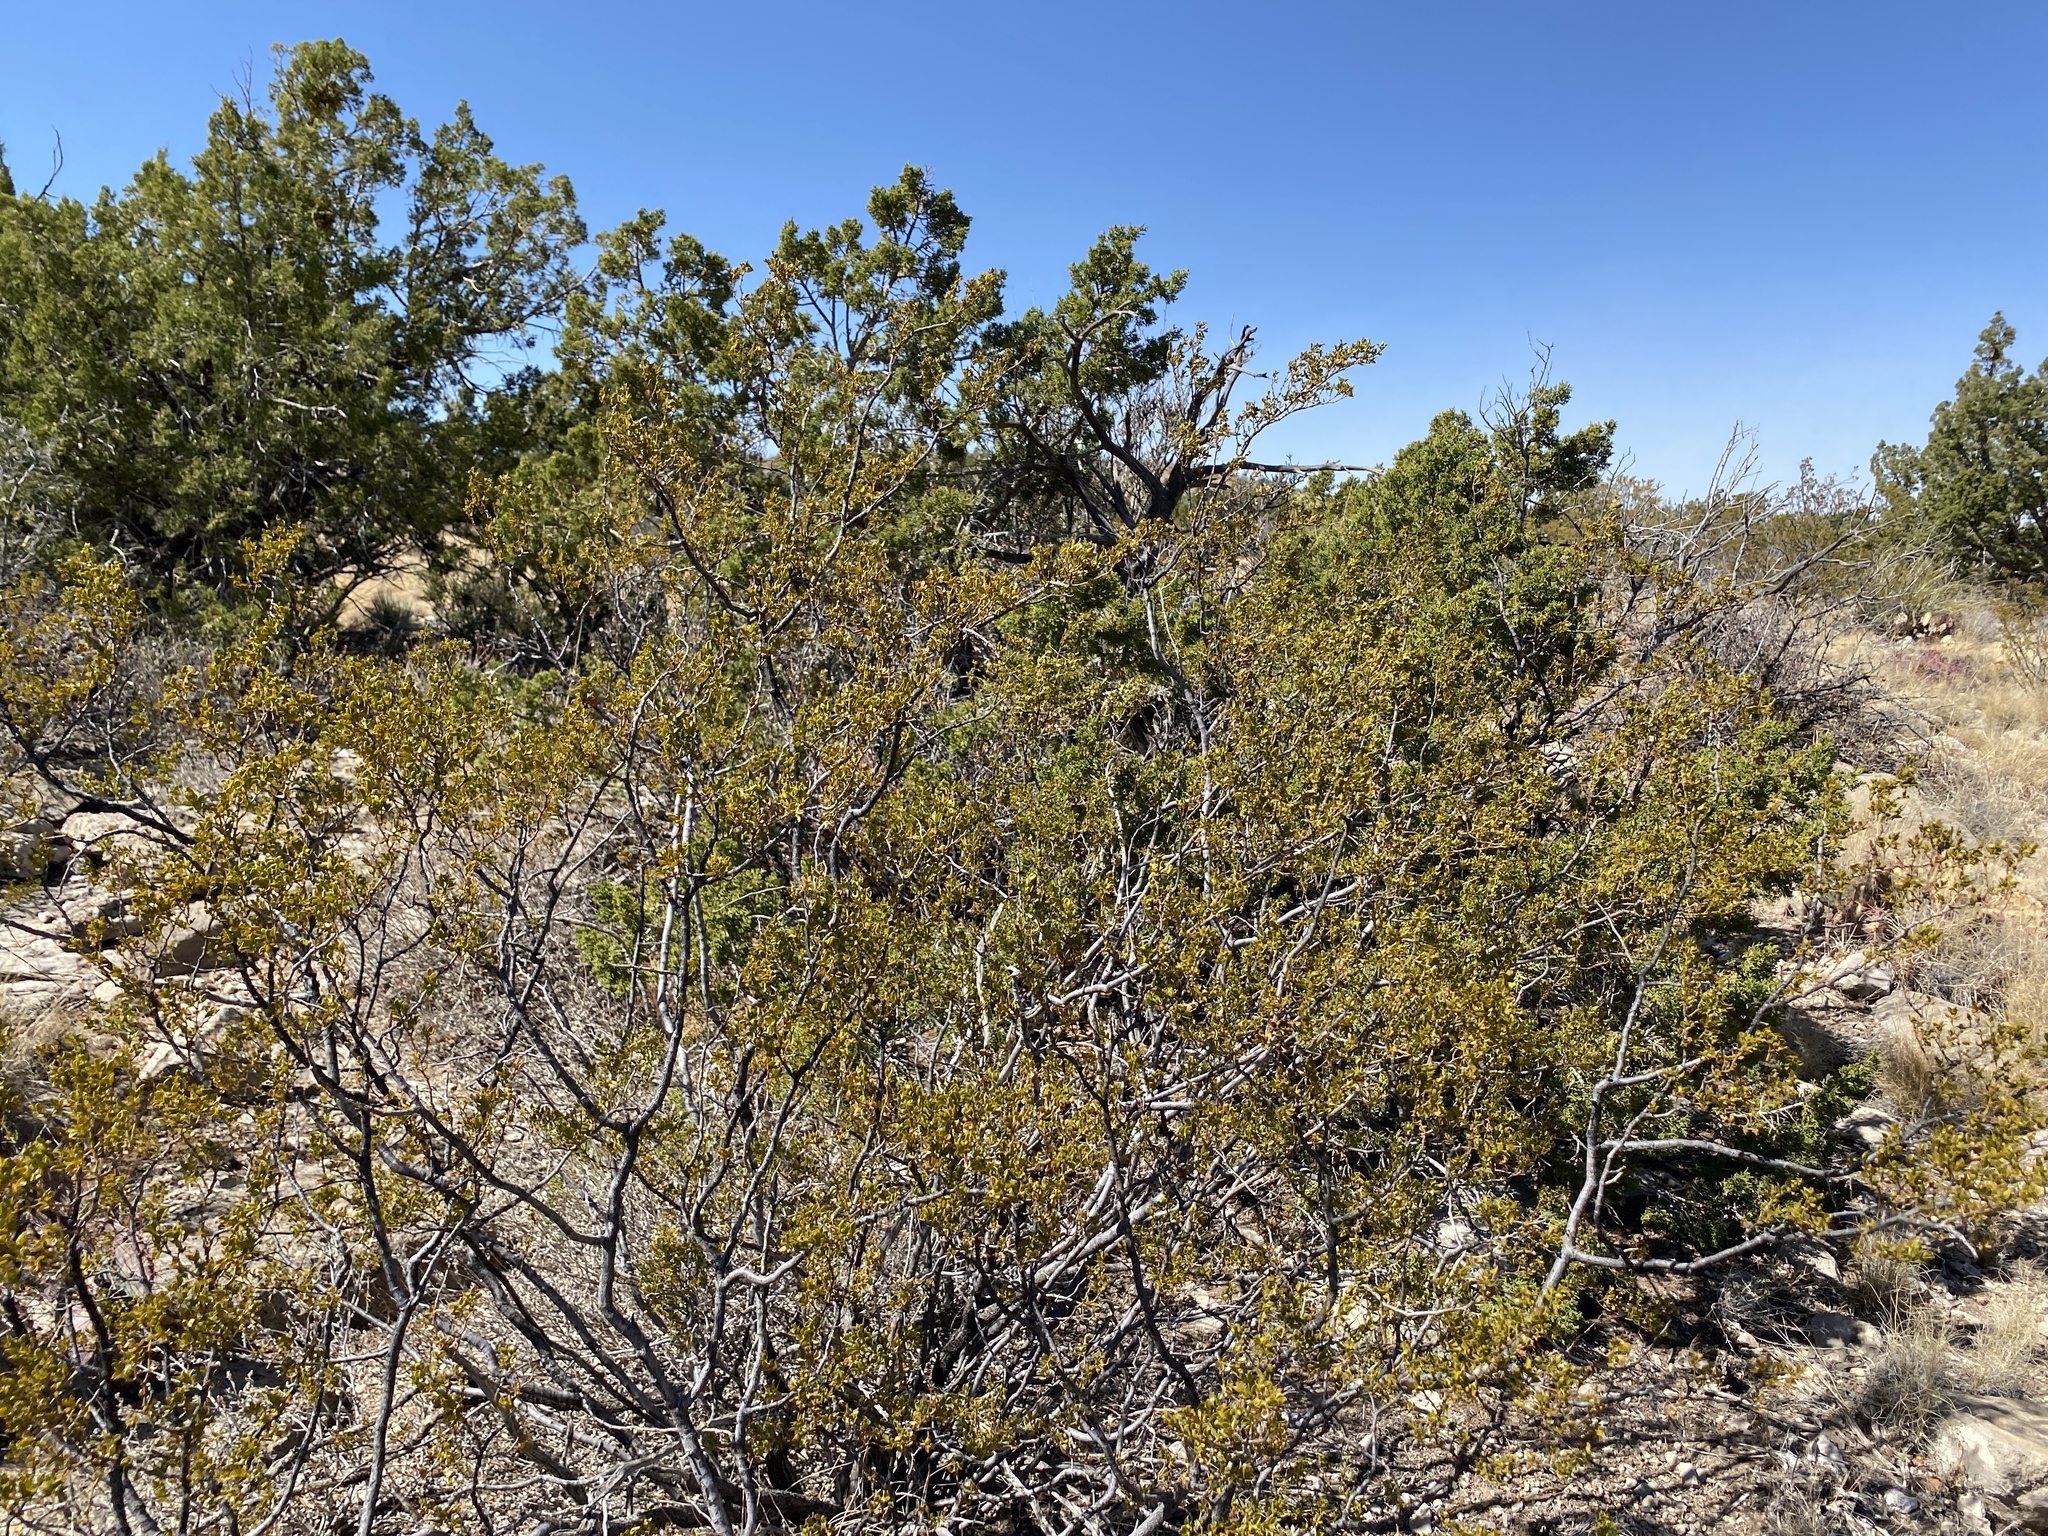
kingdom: Plantae
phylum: Tracheophyta
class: Magnoliopsida
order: Zygophyllales
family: Zygophyllaceae
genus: Larrea
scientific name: Larrea tridentata
